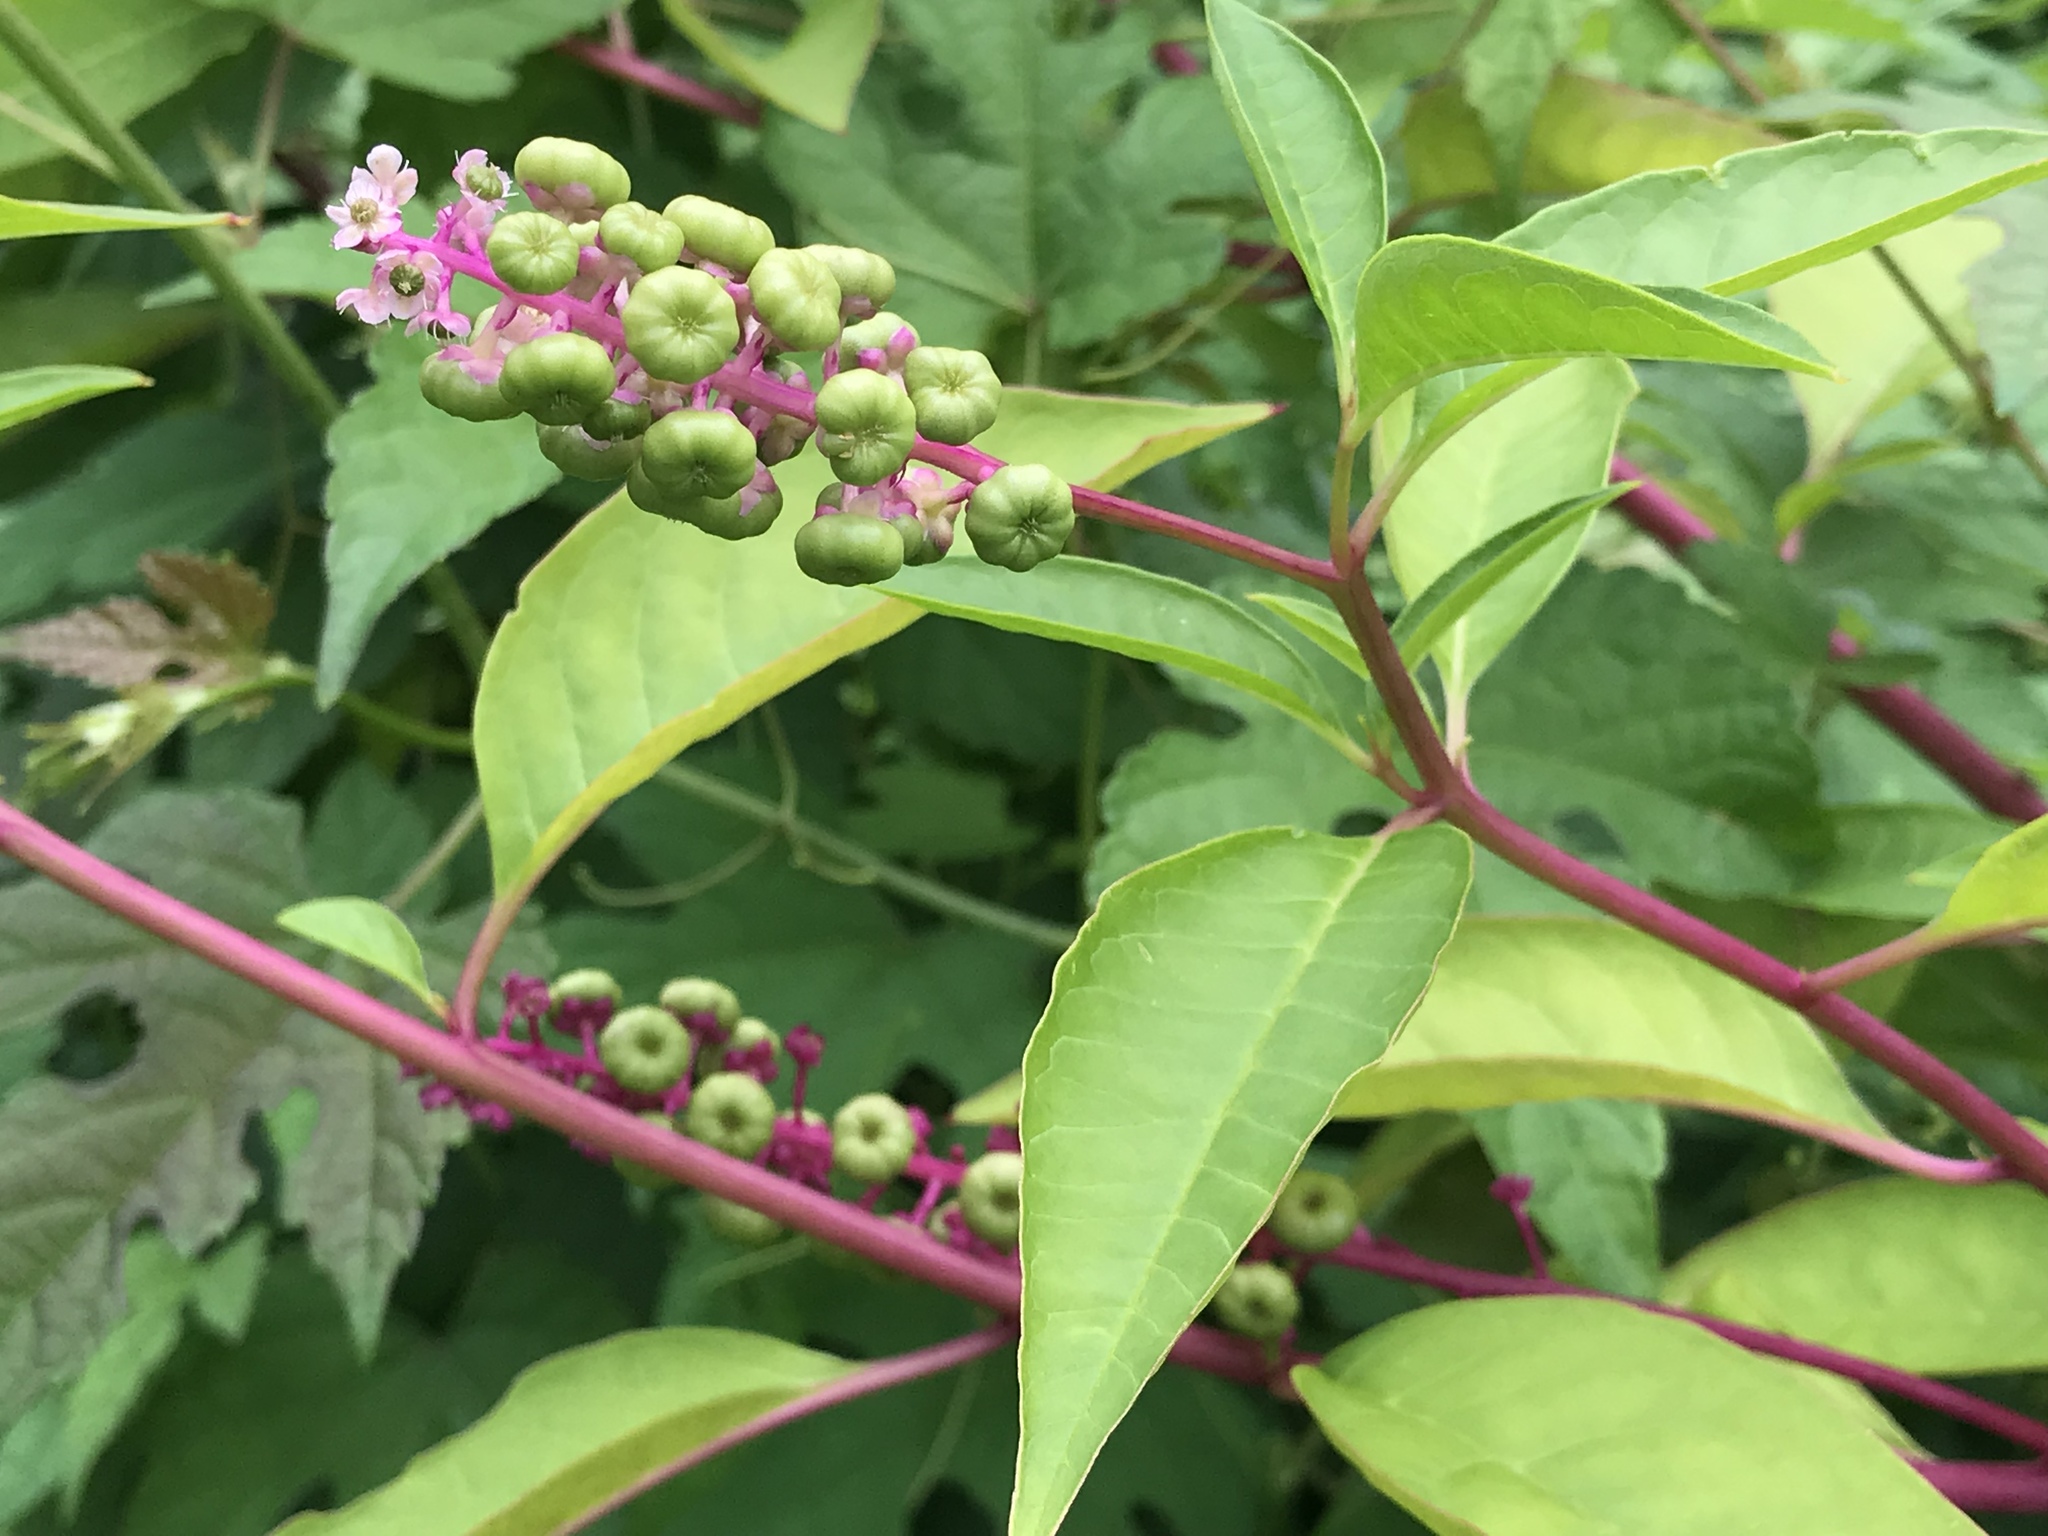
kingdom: Plantae
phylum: Tracheophyta
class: Magnoliopsida
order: Caryophyllales
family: Phytolaccaceae
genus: Phytolacca
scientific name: Phytolacca americana
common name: American pokeweed
